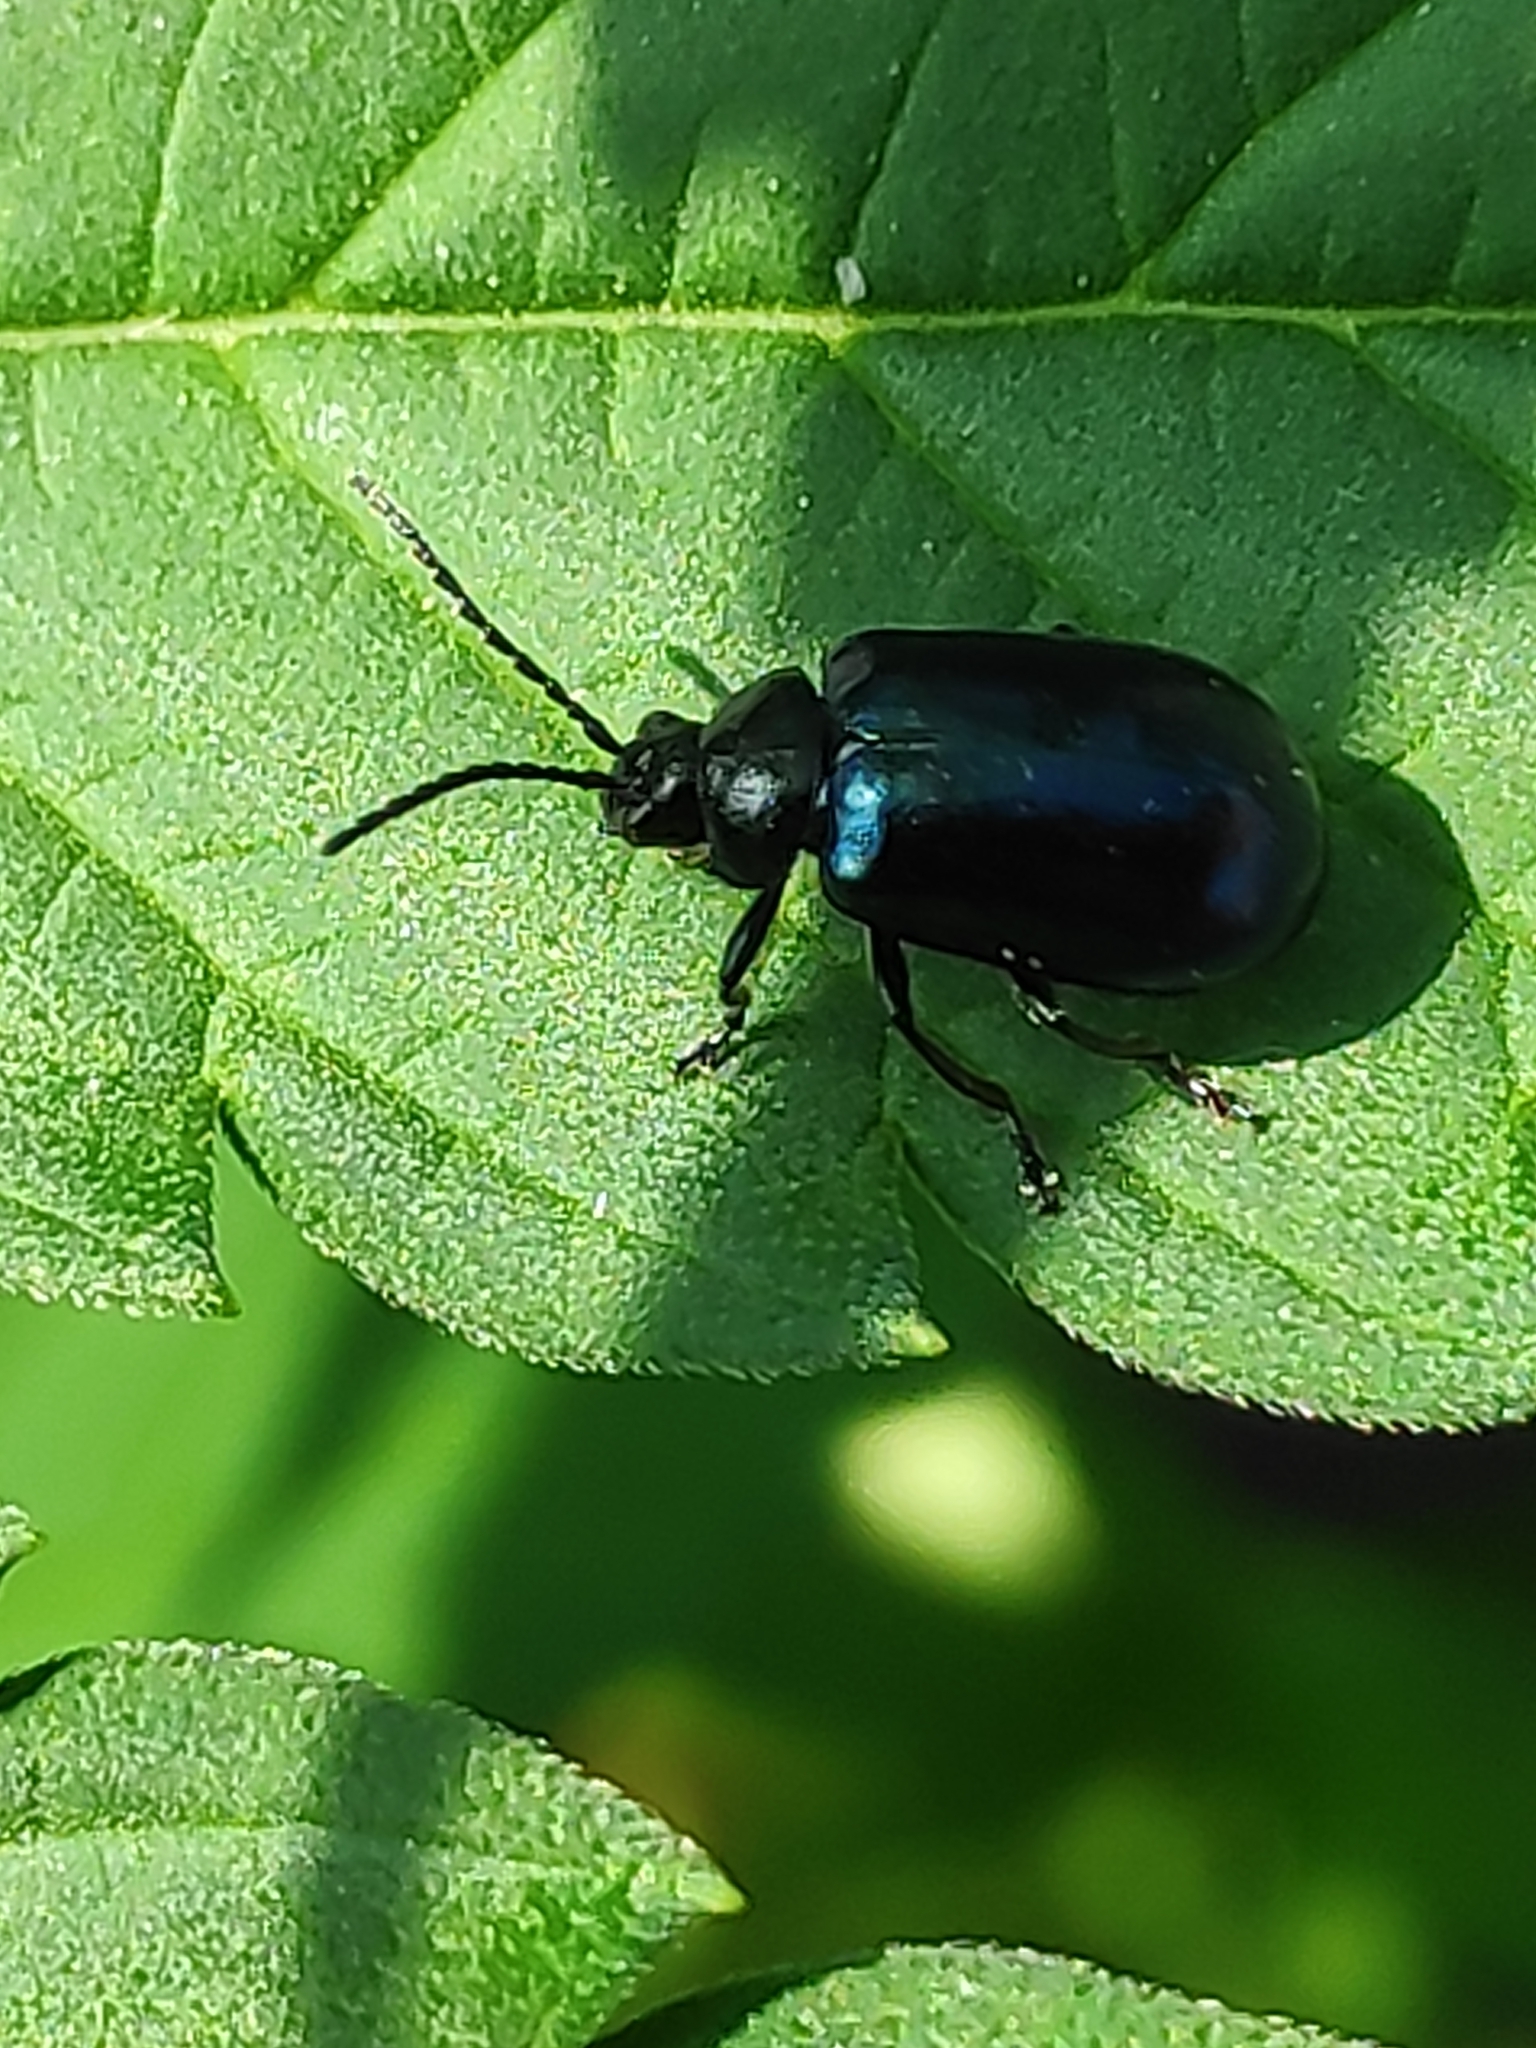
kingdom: Animalia
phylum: Arthropoda
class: Insecta
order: Coleoptera
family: Chrysomelidae
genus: Agelastica
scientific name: Agelastica alni
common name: Alder leaf beetle
